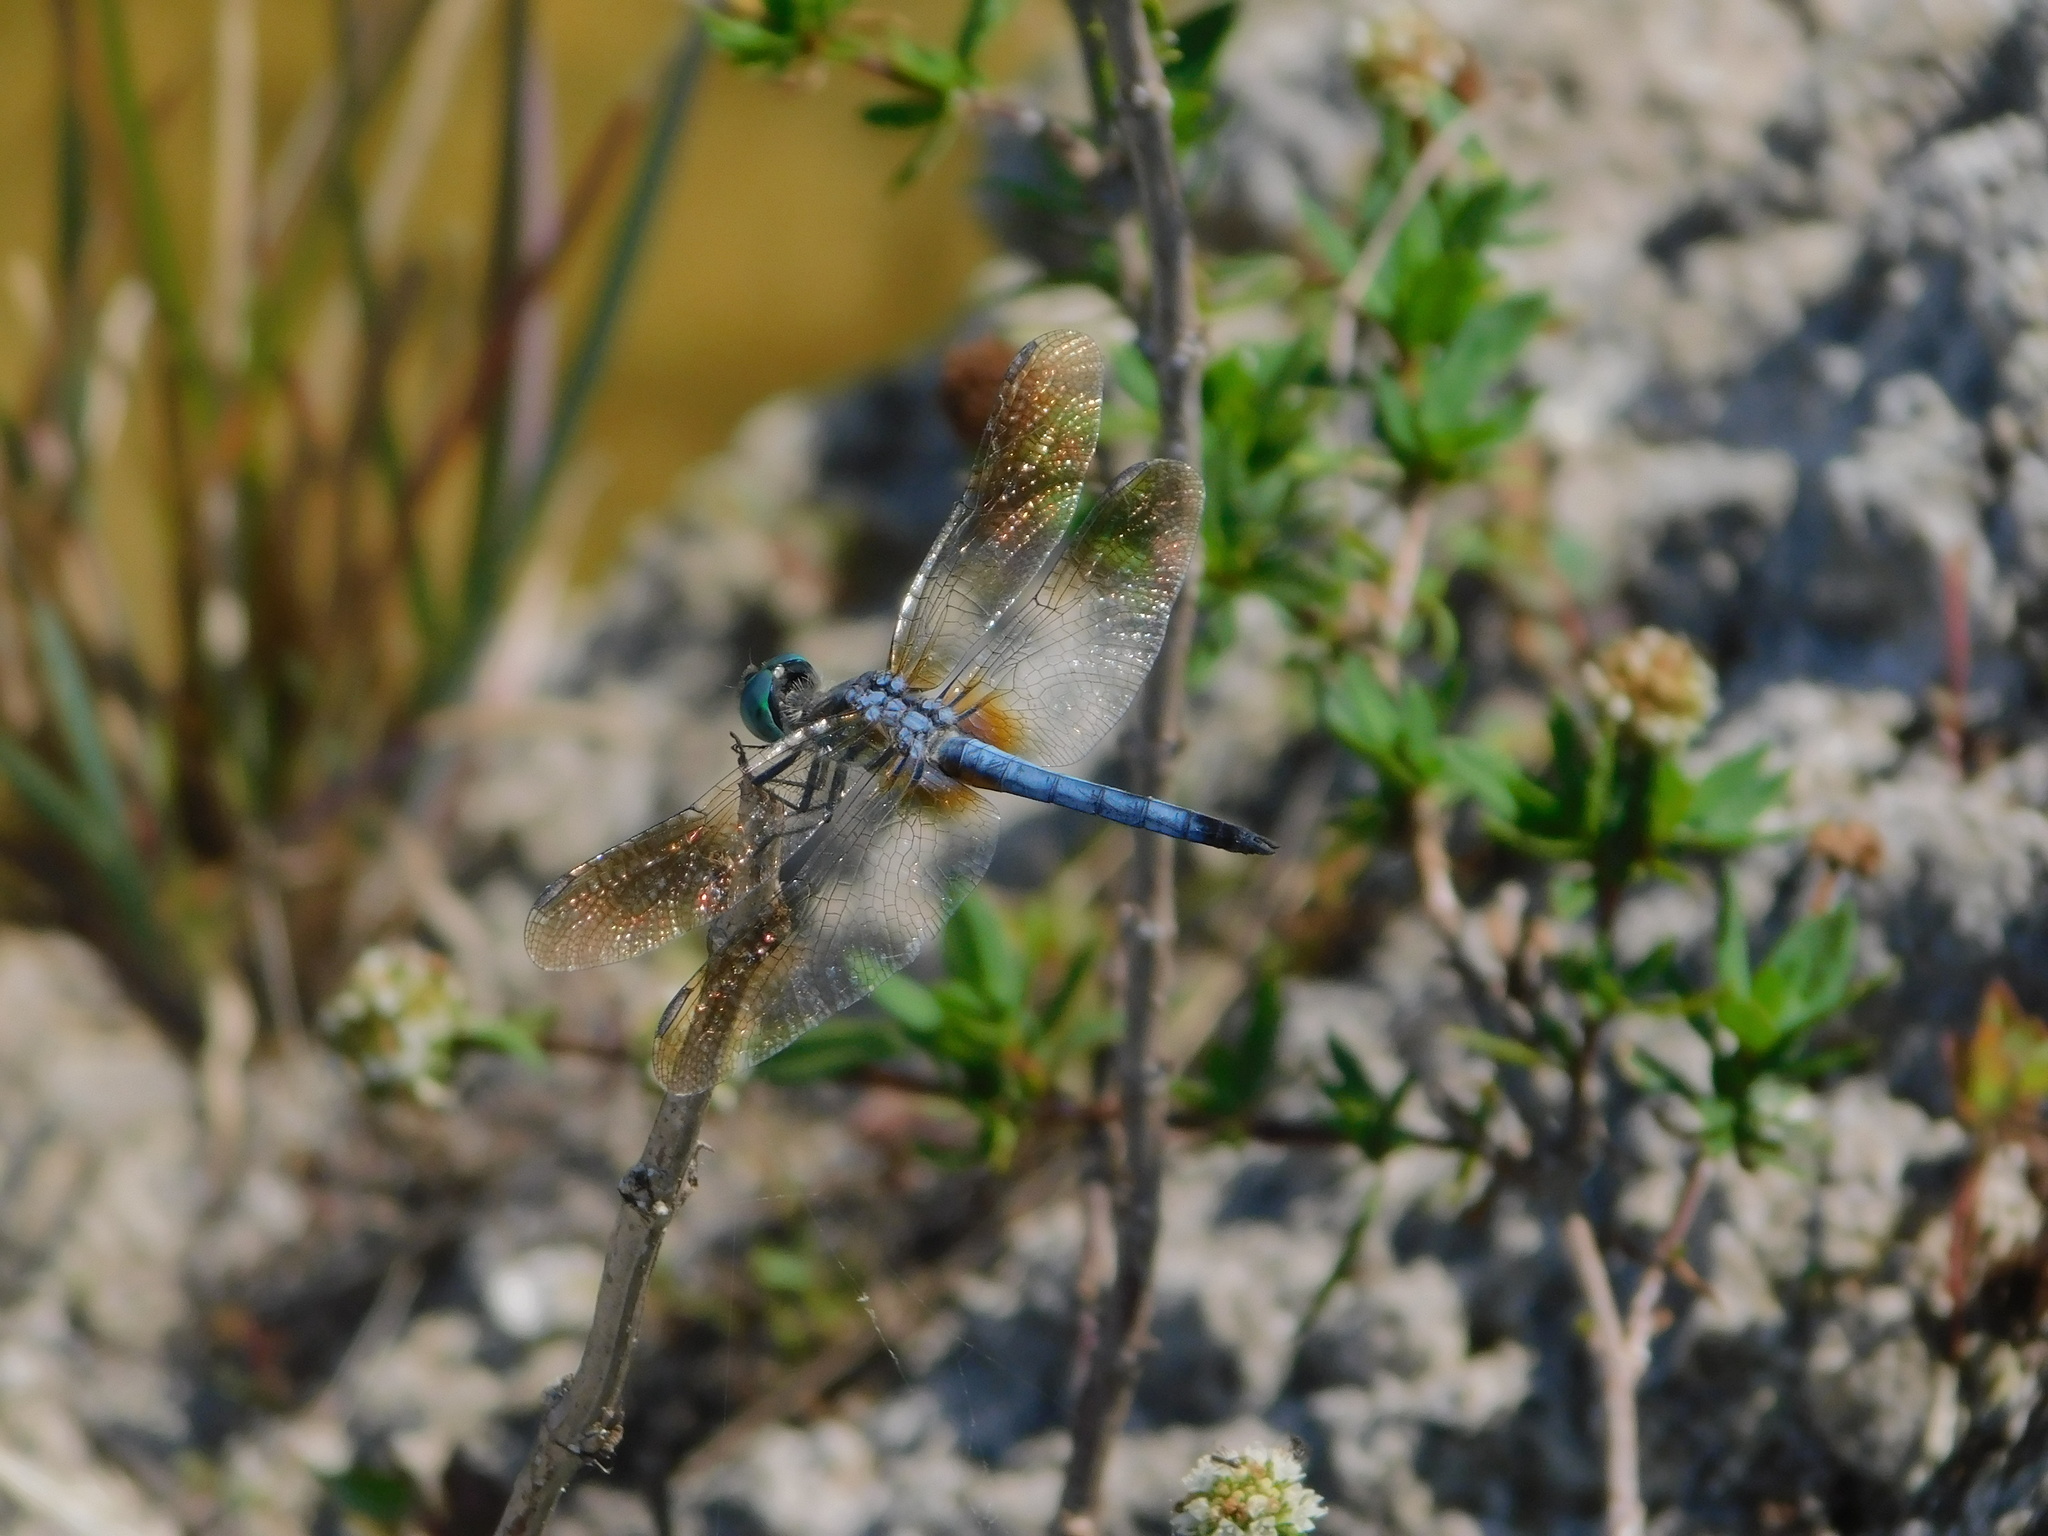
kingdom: Animalia
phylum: Arthropoda
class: Insecta
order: Odonata
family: Libellulidae
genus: Pachydiplax
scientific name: Pachydiplax longipennis
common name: Blue dasher
